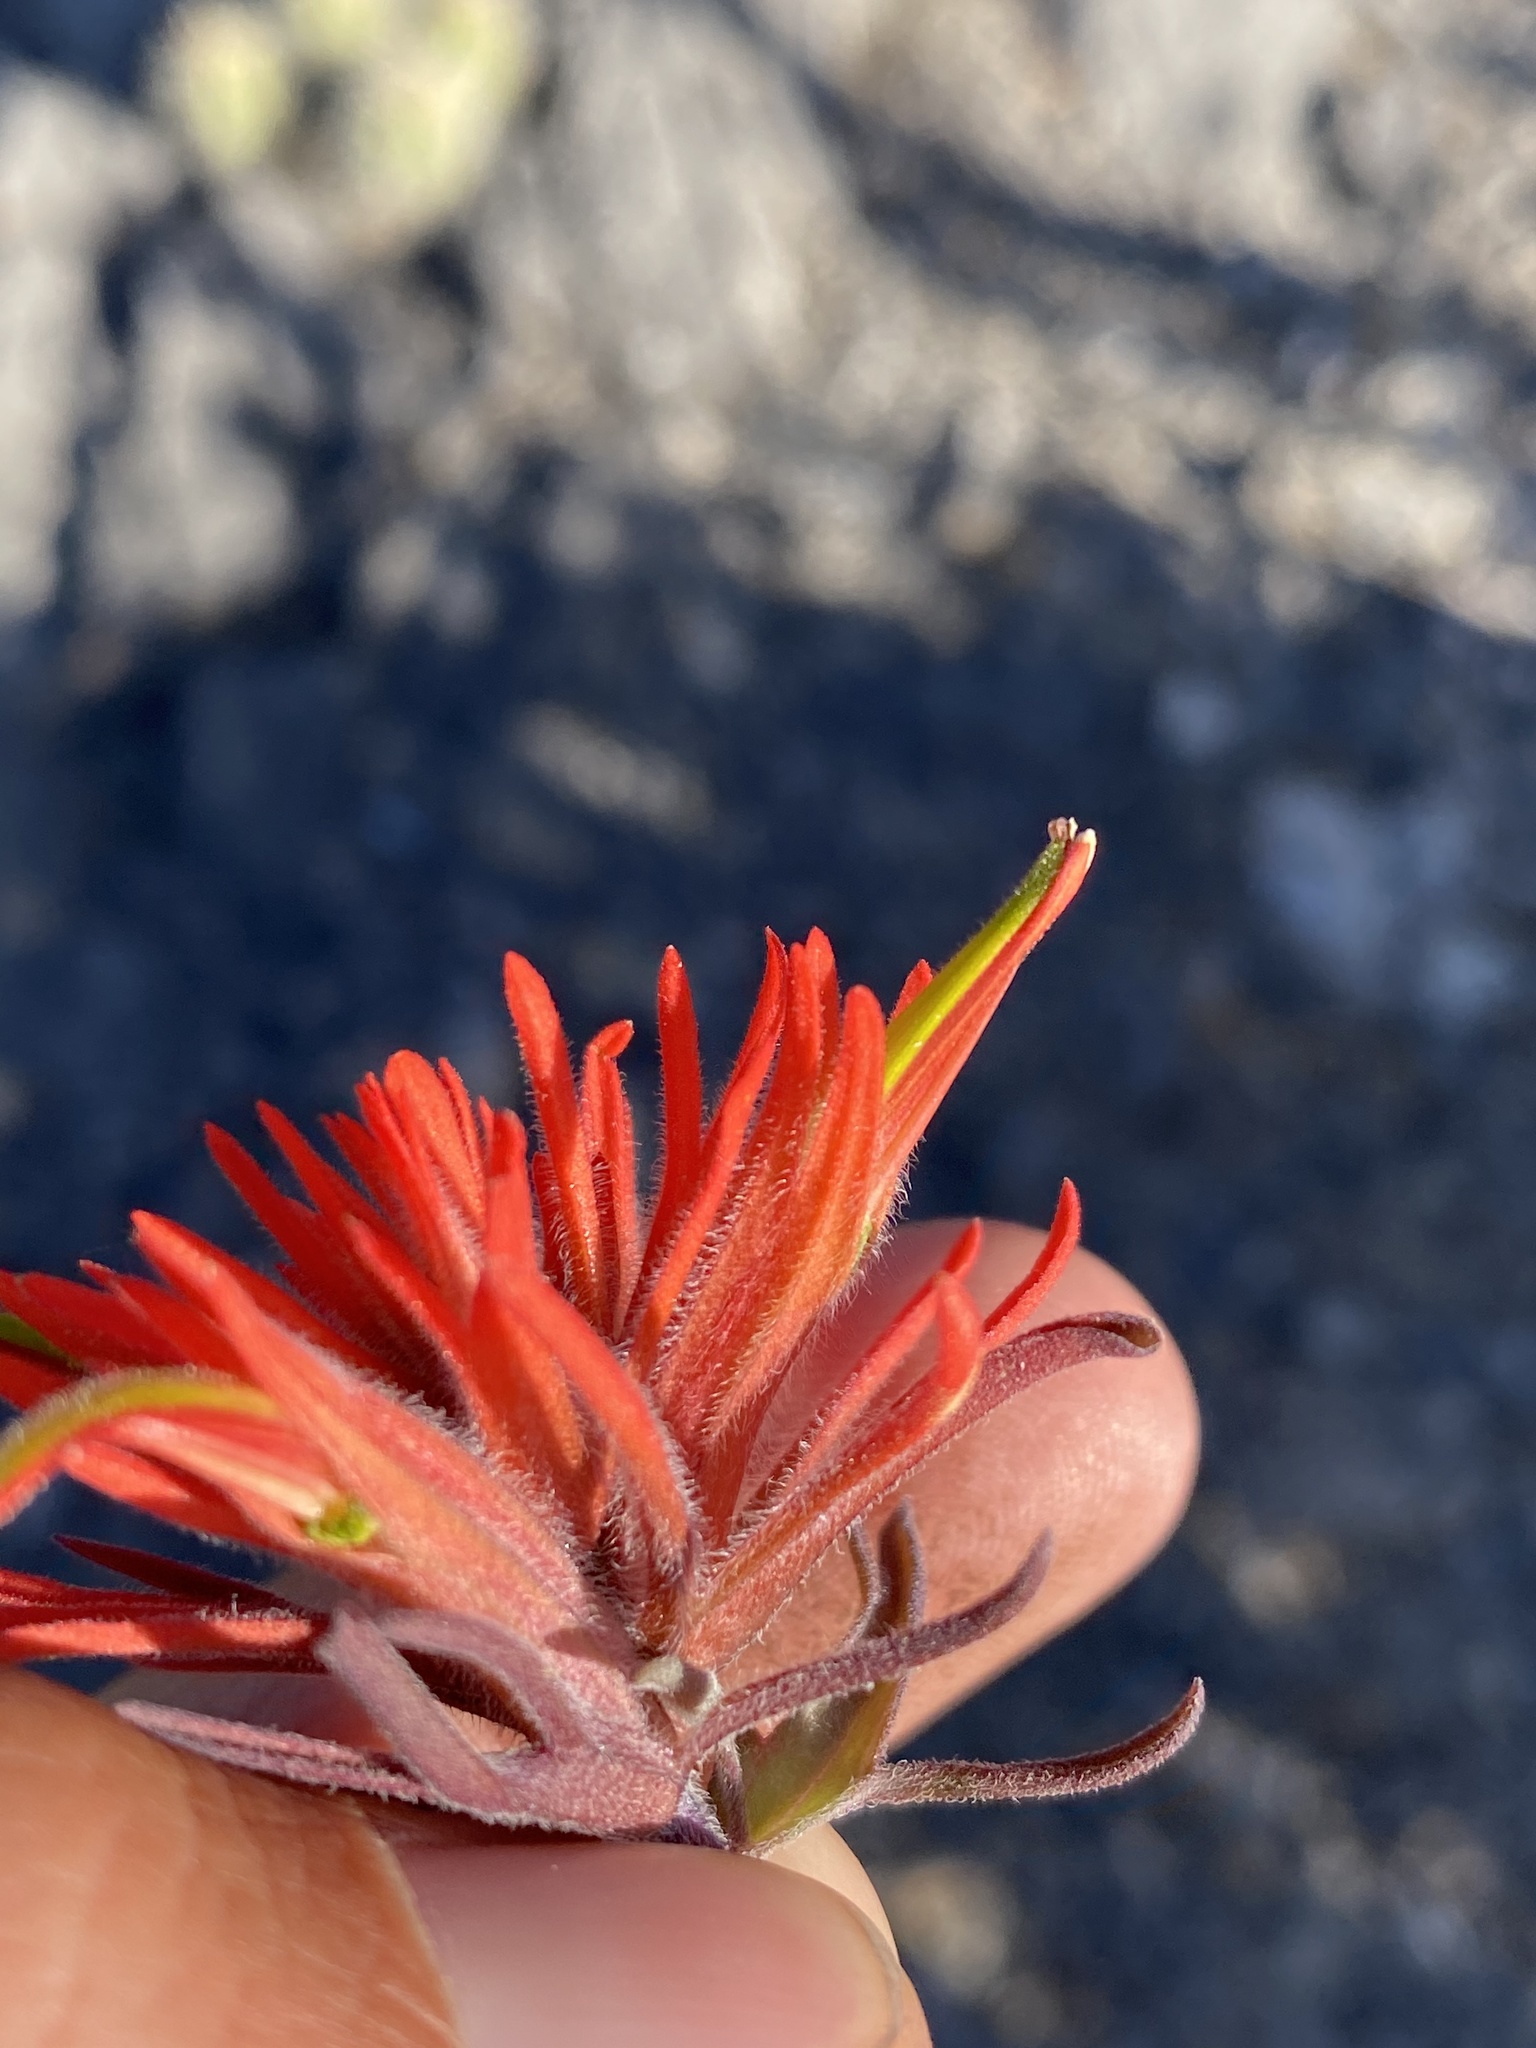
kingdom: Plantae
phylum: Tracheophyta
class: Magnoliopsida
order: Lamiales
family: Orobanchaceae
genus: Castilleja
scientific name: Castilleja scabrida
